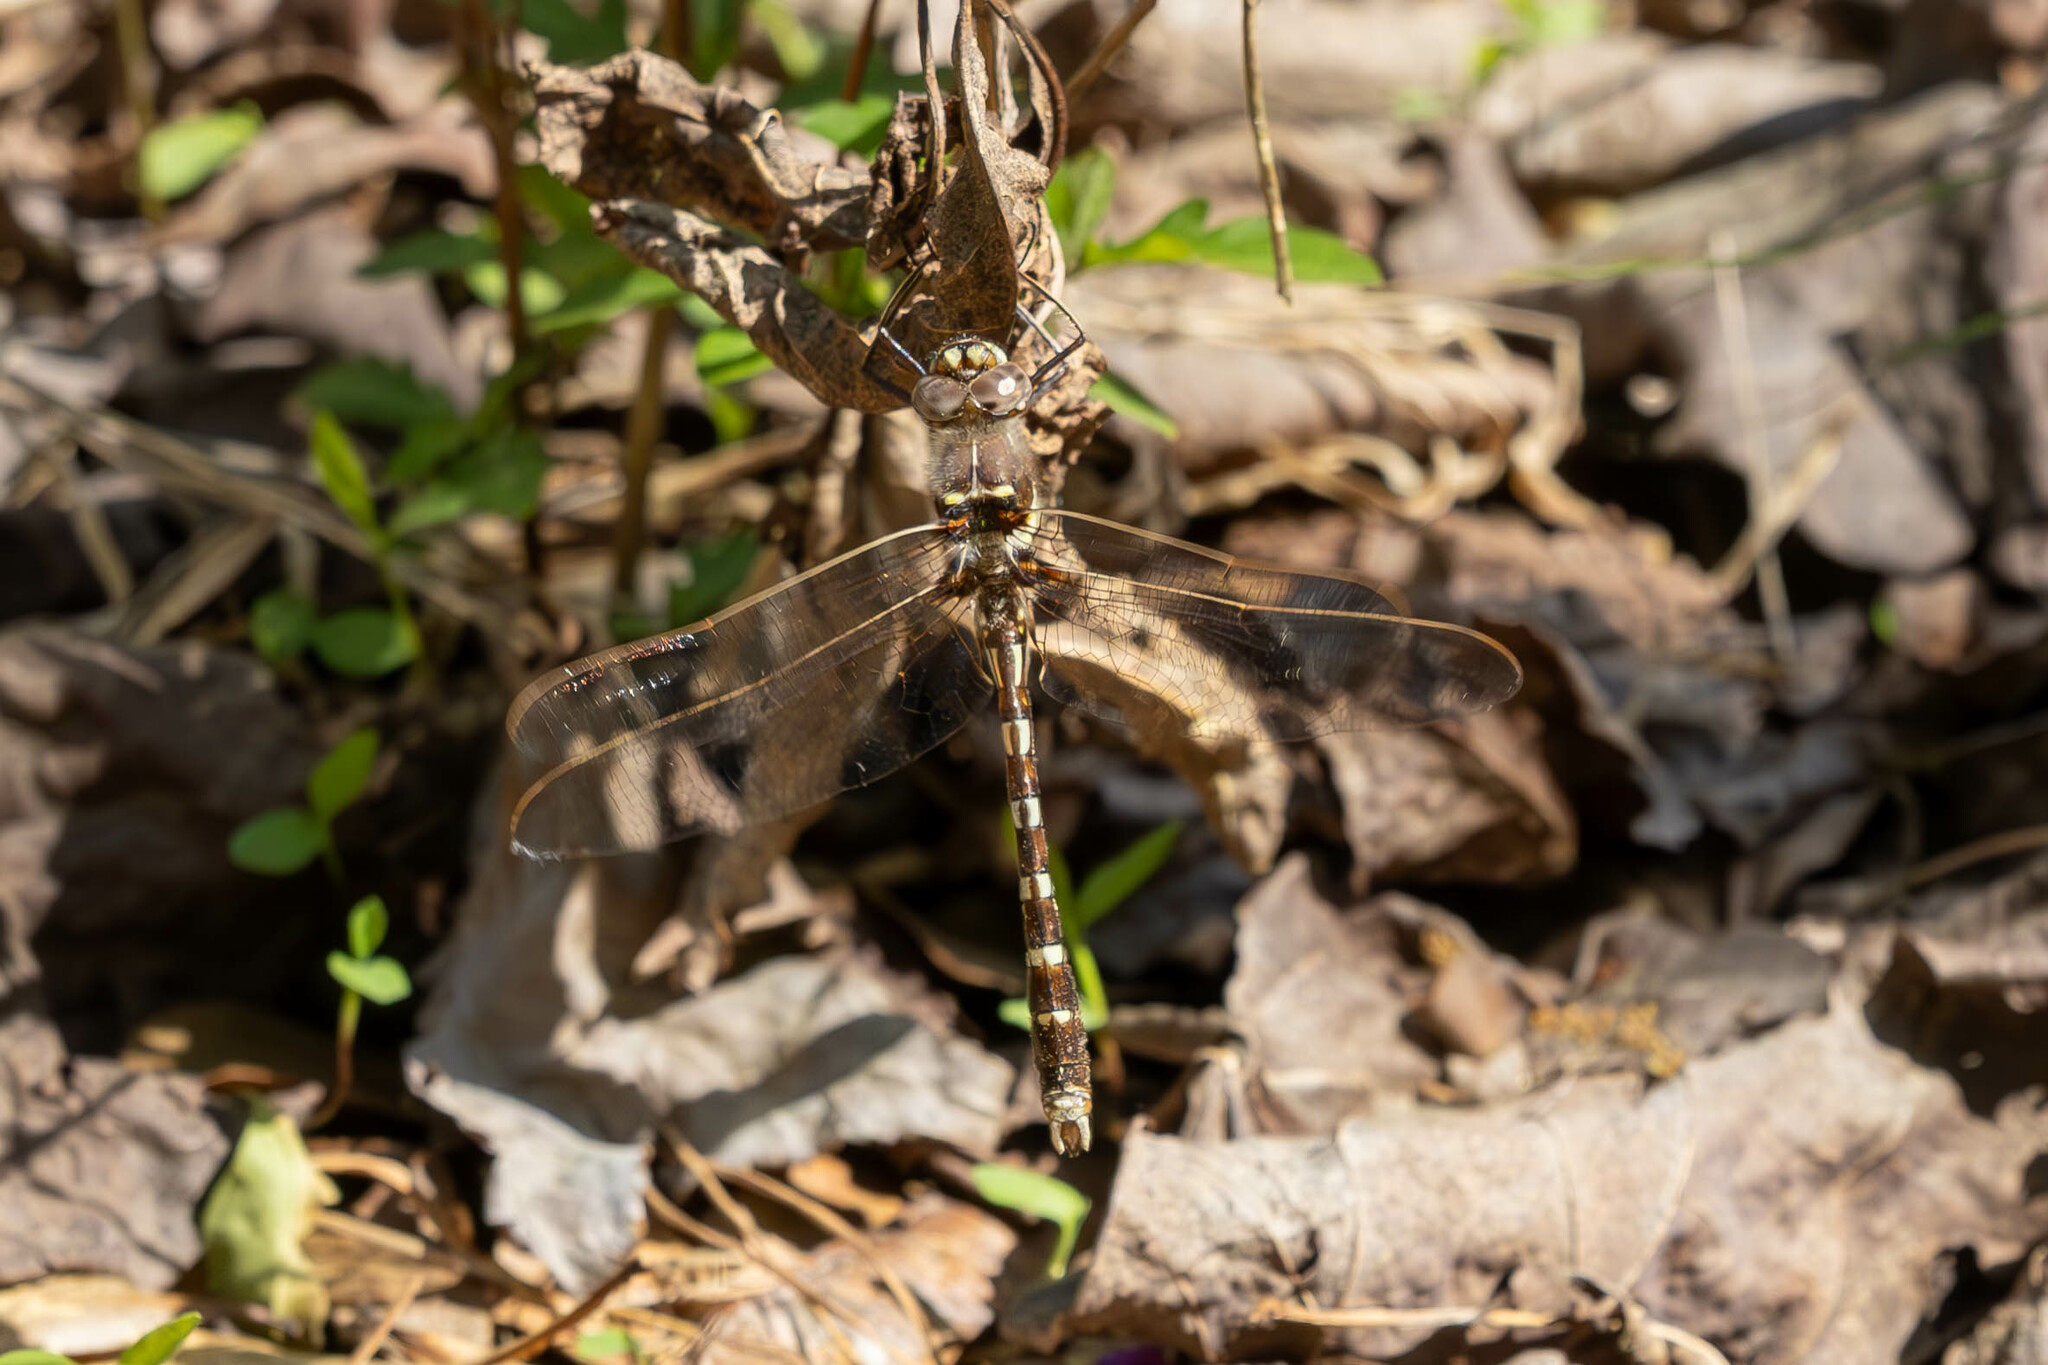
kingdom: Animalia
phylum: Arthropoda
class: Insecta
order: Odonata
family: Macromiidae
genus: Didymops
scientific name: Didymops transversa
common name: Stream cruiser
